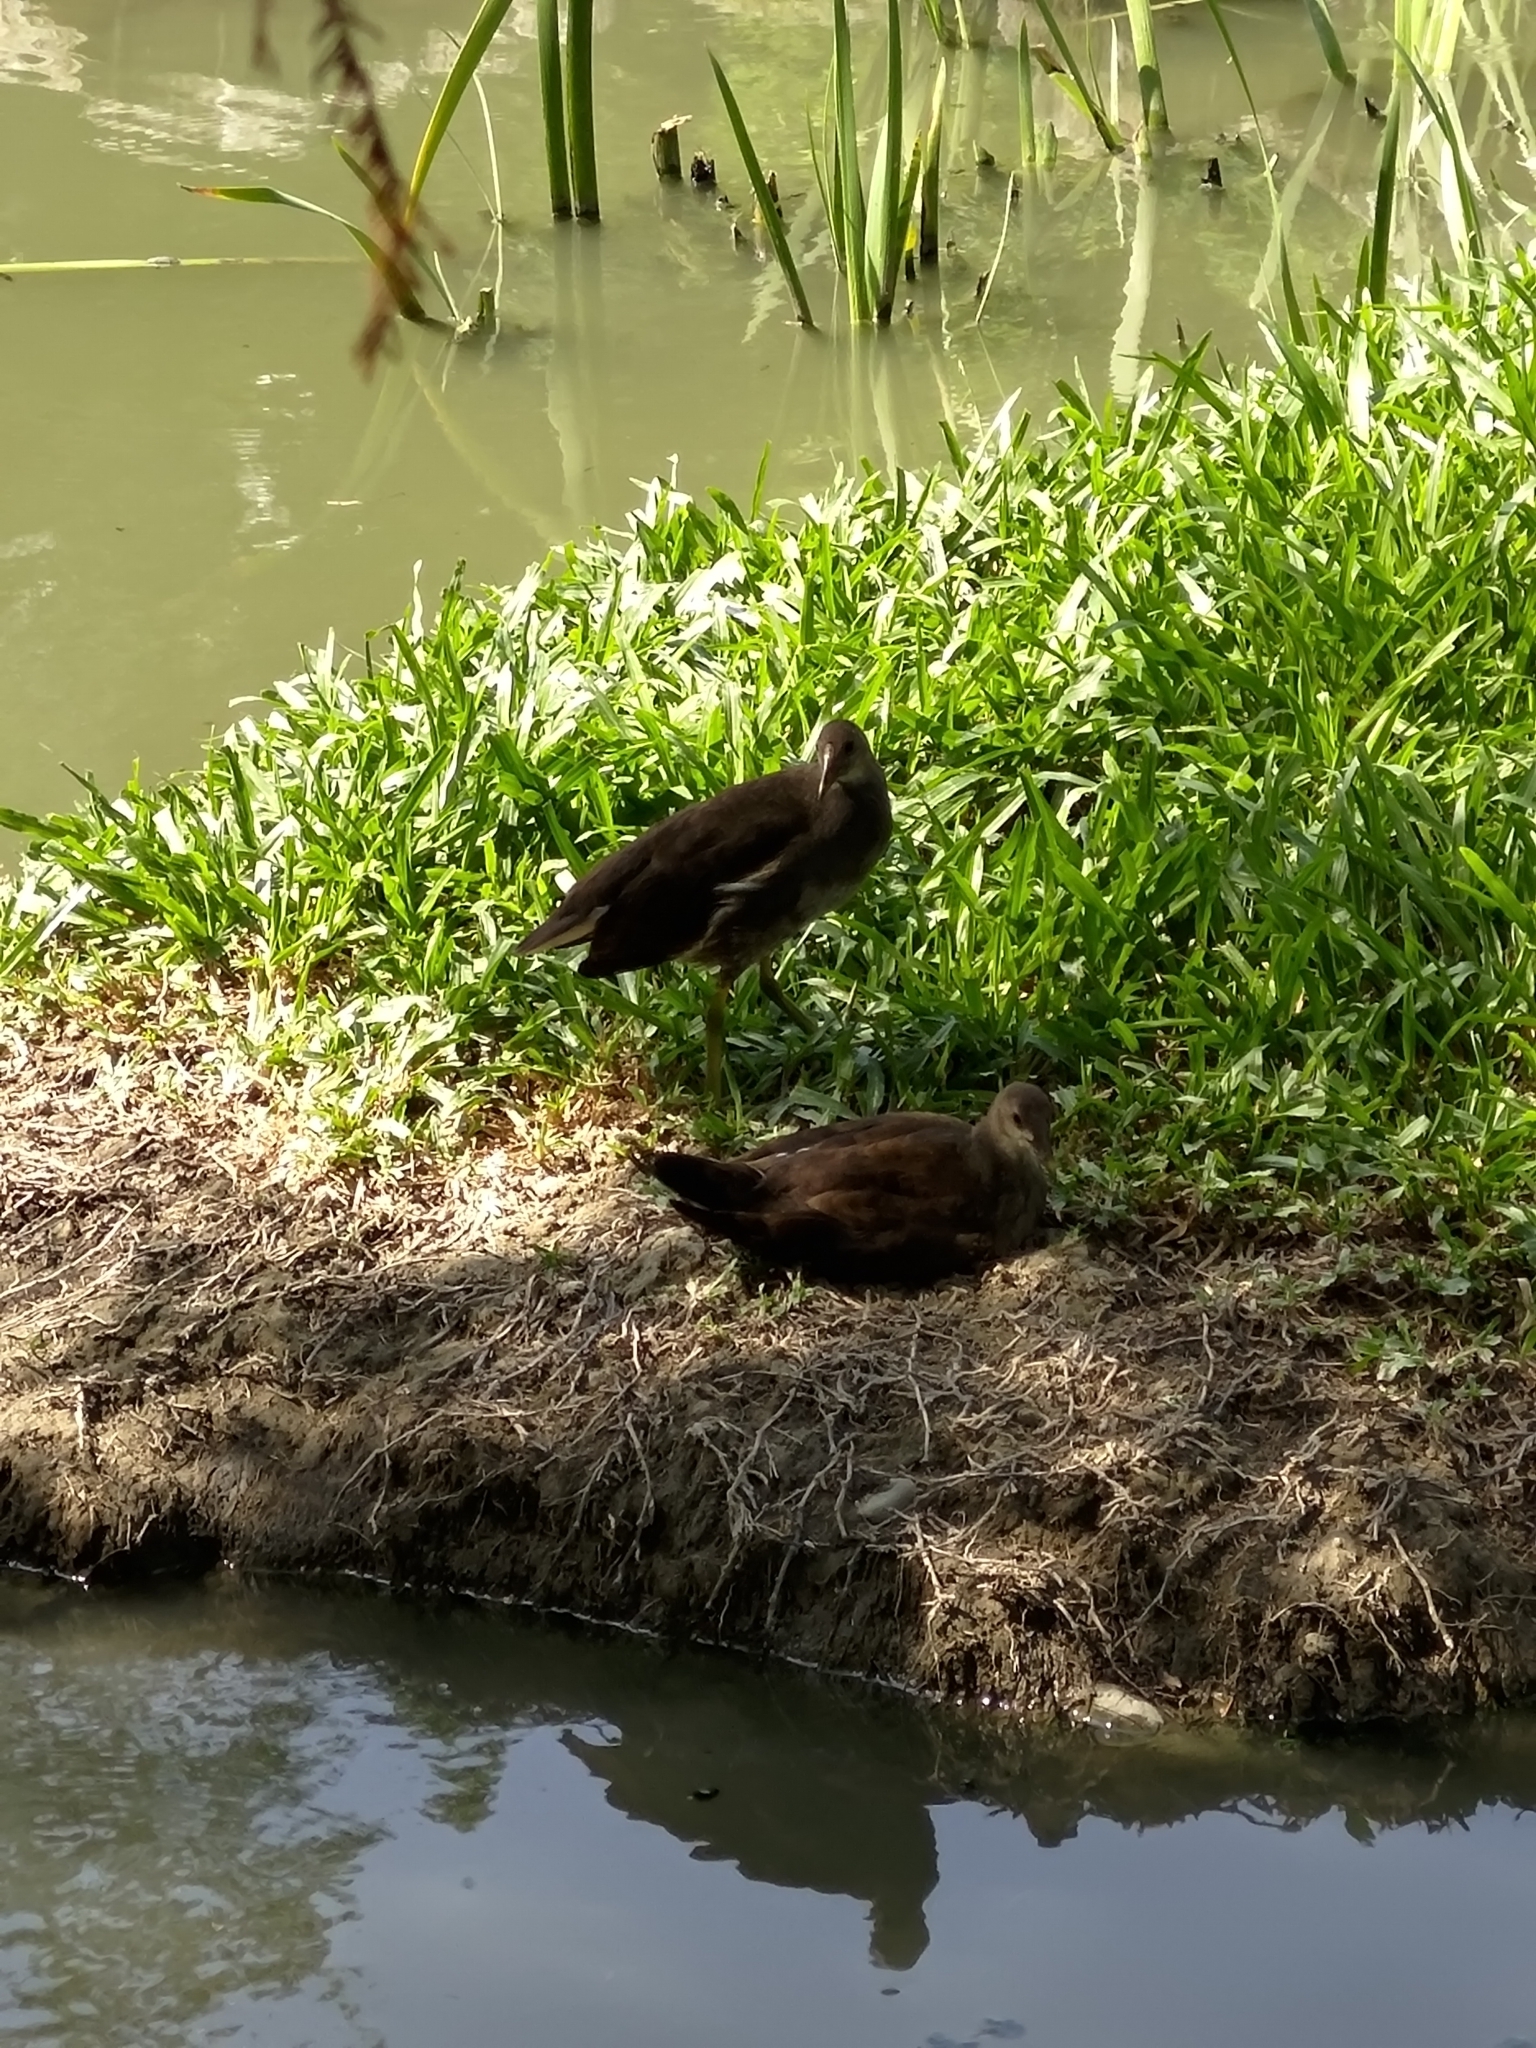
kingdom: Animalia
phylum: Chordata
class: Aves
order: Gruiformes
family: Rallidae
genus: Gallinula
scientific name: Gallinula chloropus
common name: Common moorhen
